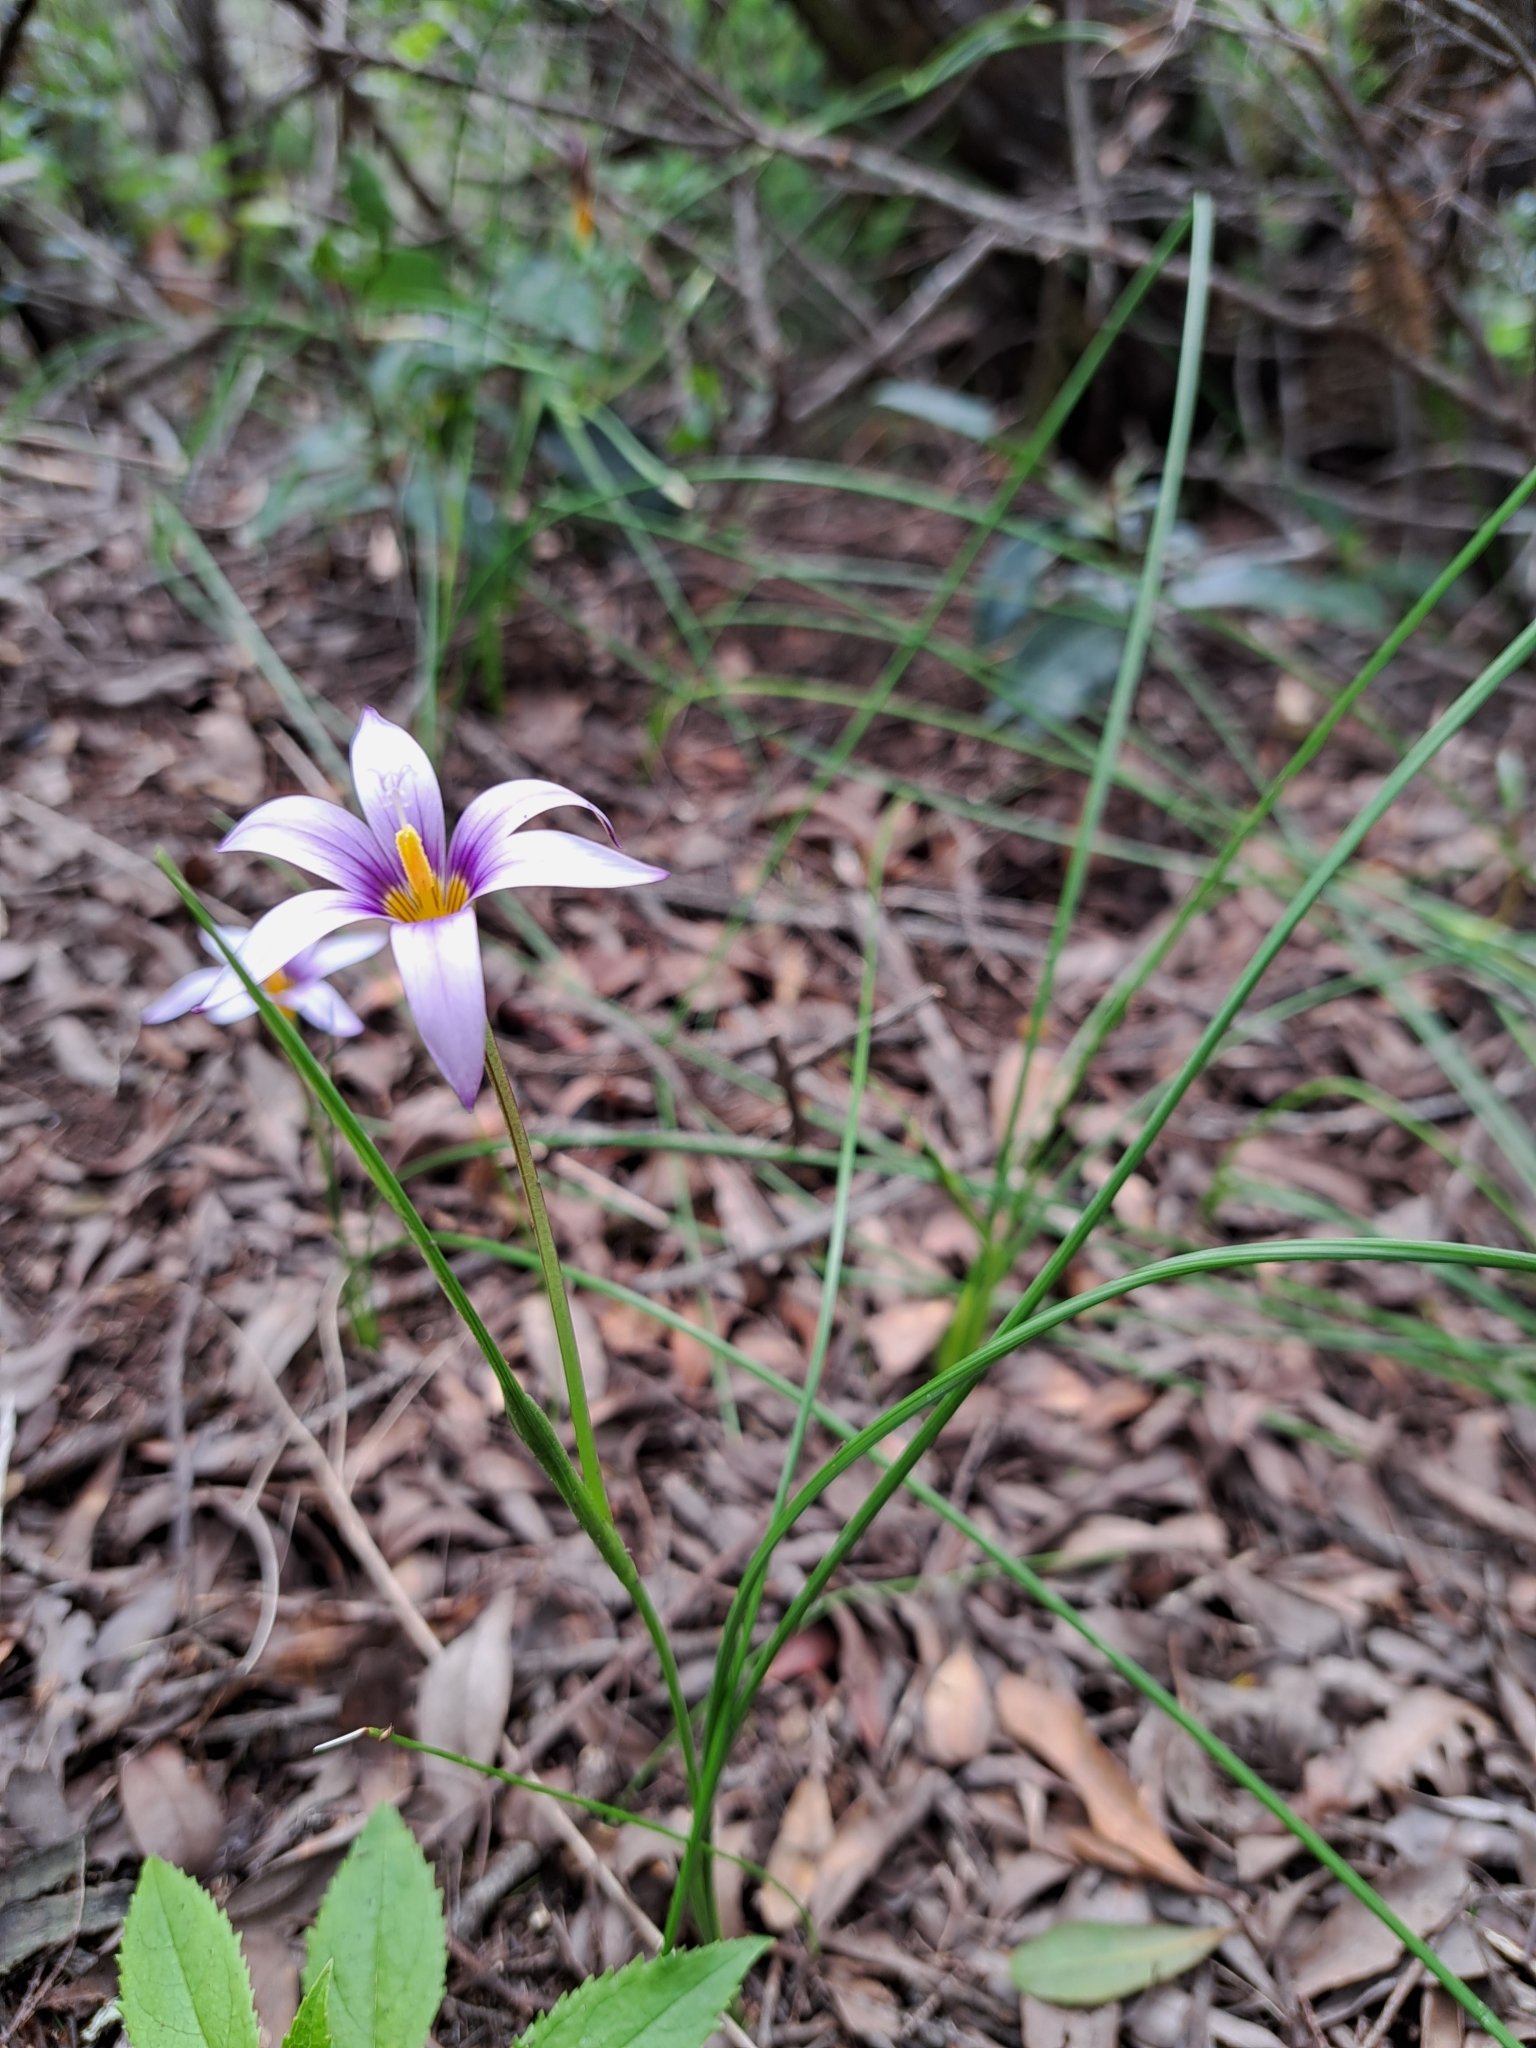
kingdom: Plantae
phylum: Tracheophyta
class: Liliopsida
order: Asparagales
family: Iridaceae
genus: Romulea
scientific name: Romulea columnae
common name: Sand-crocus
